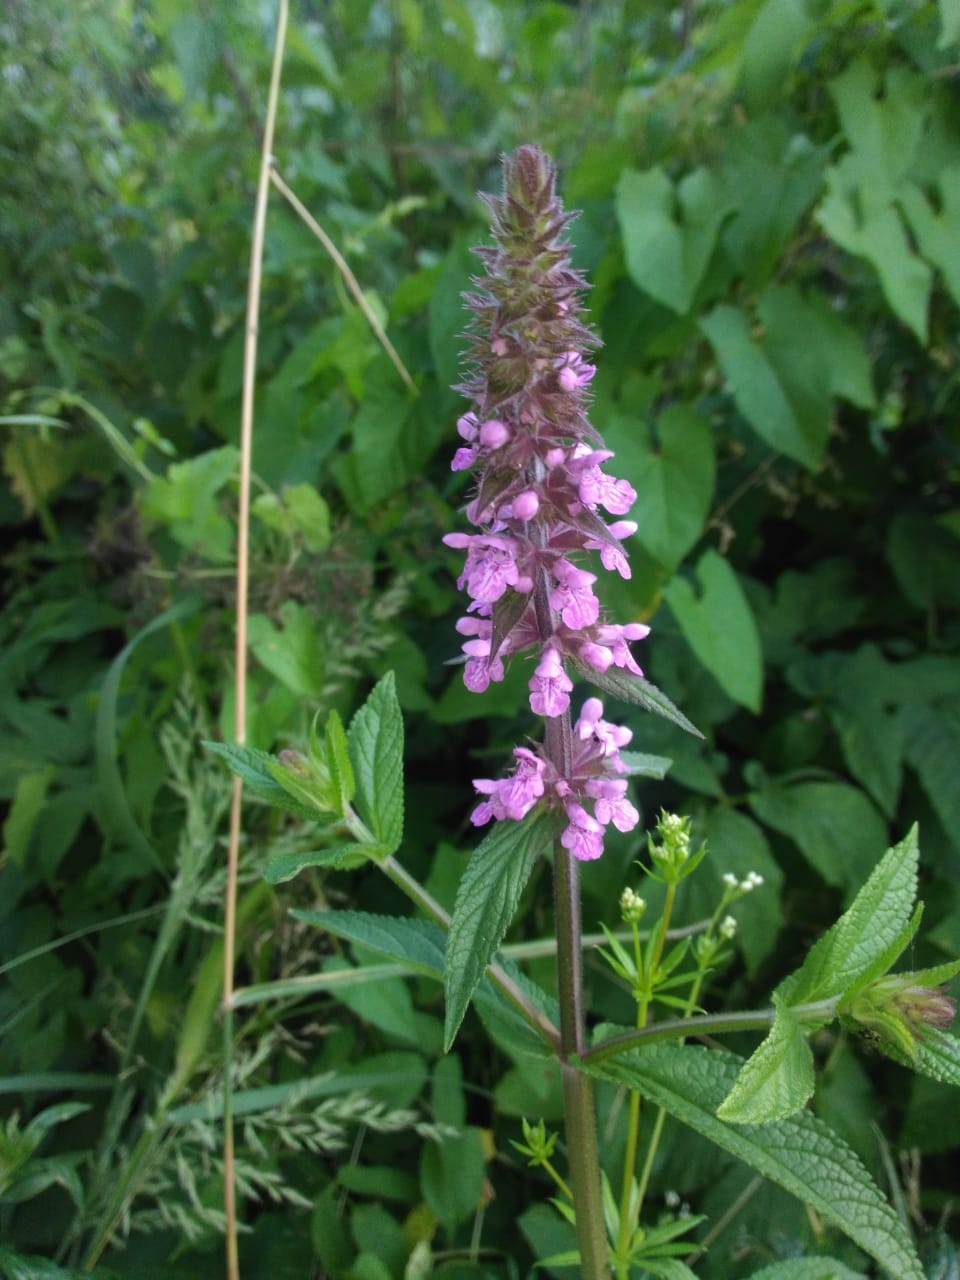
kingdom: Plantae
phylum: Tracheophyta
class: Magnoliopsida
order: Lamiales
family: Lamiaceae
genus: Stachys
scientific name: Stachys palustris
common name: Marsh woundwort
